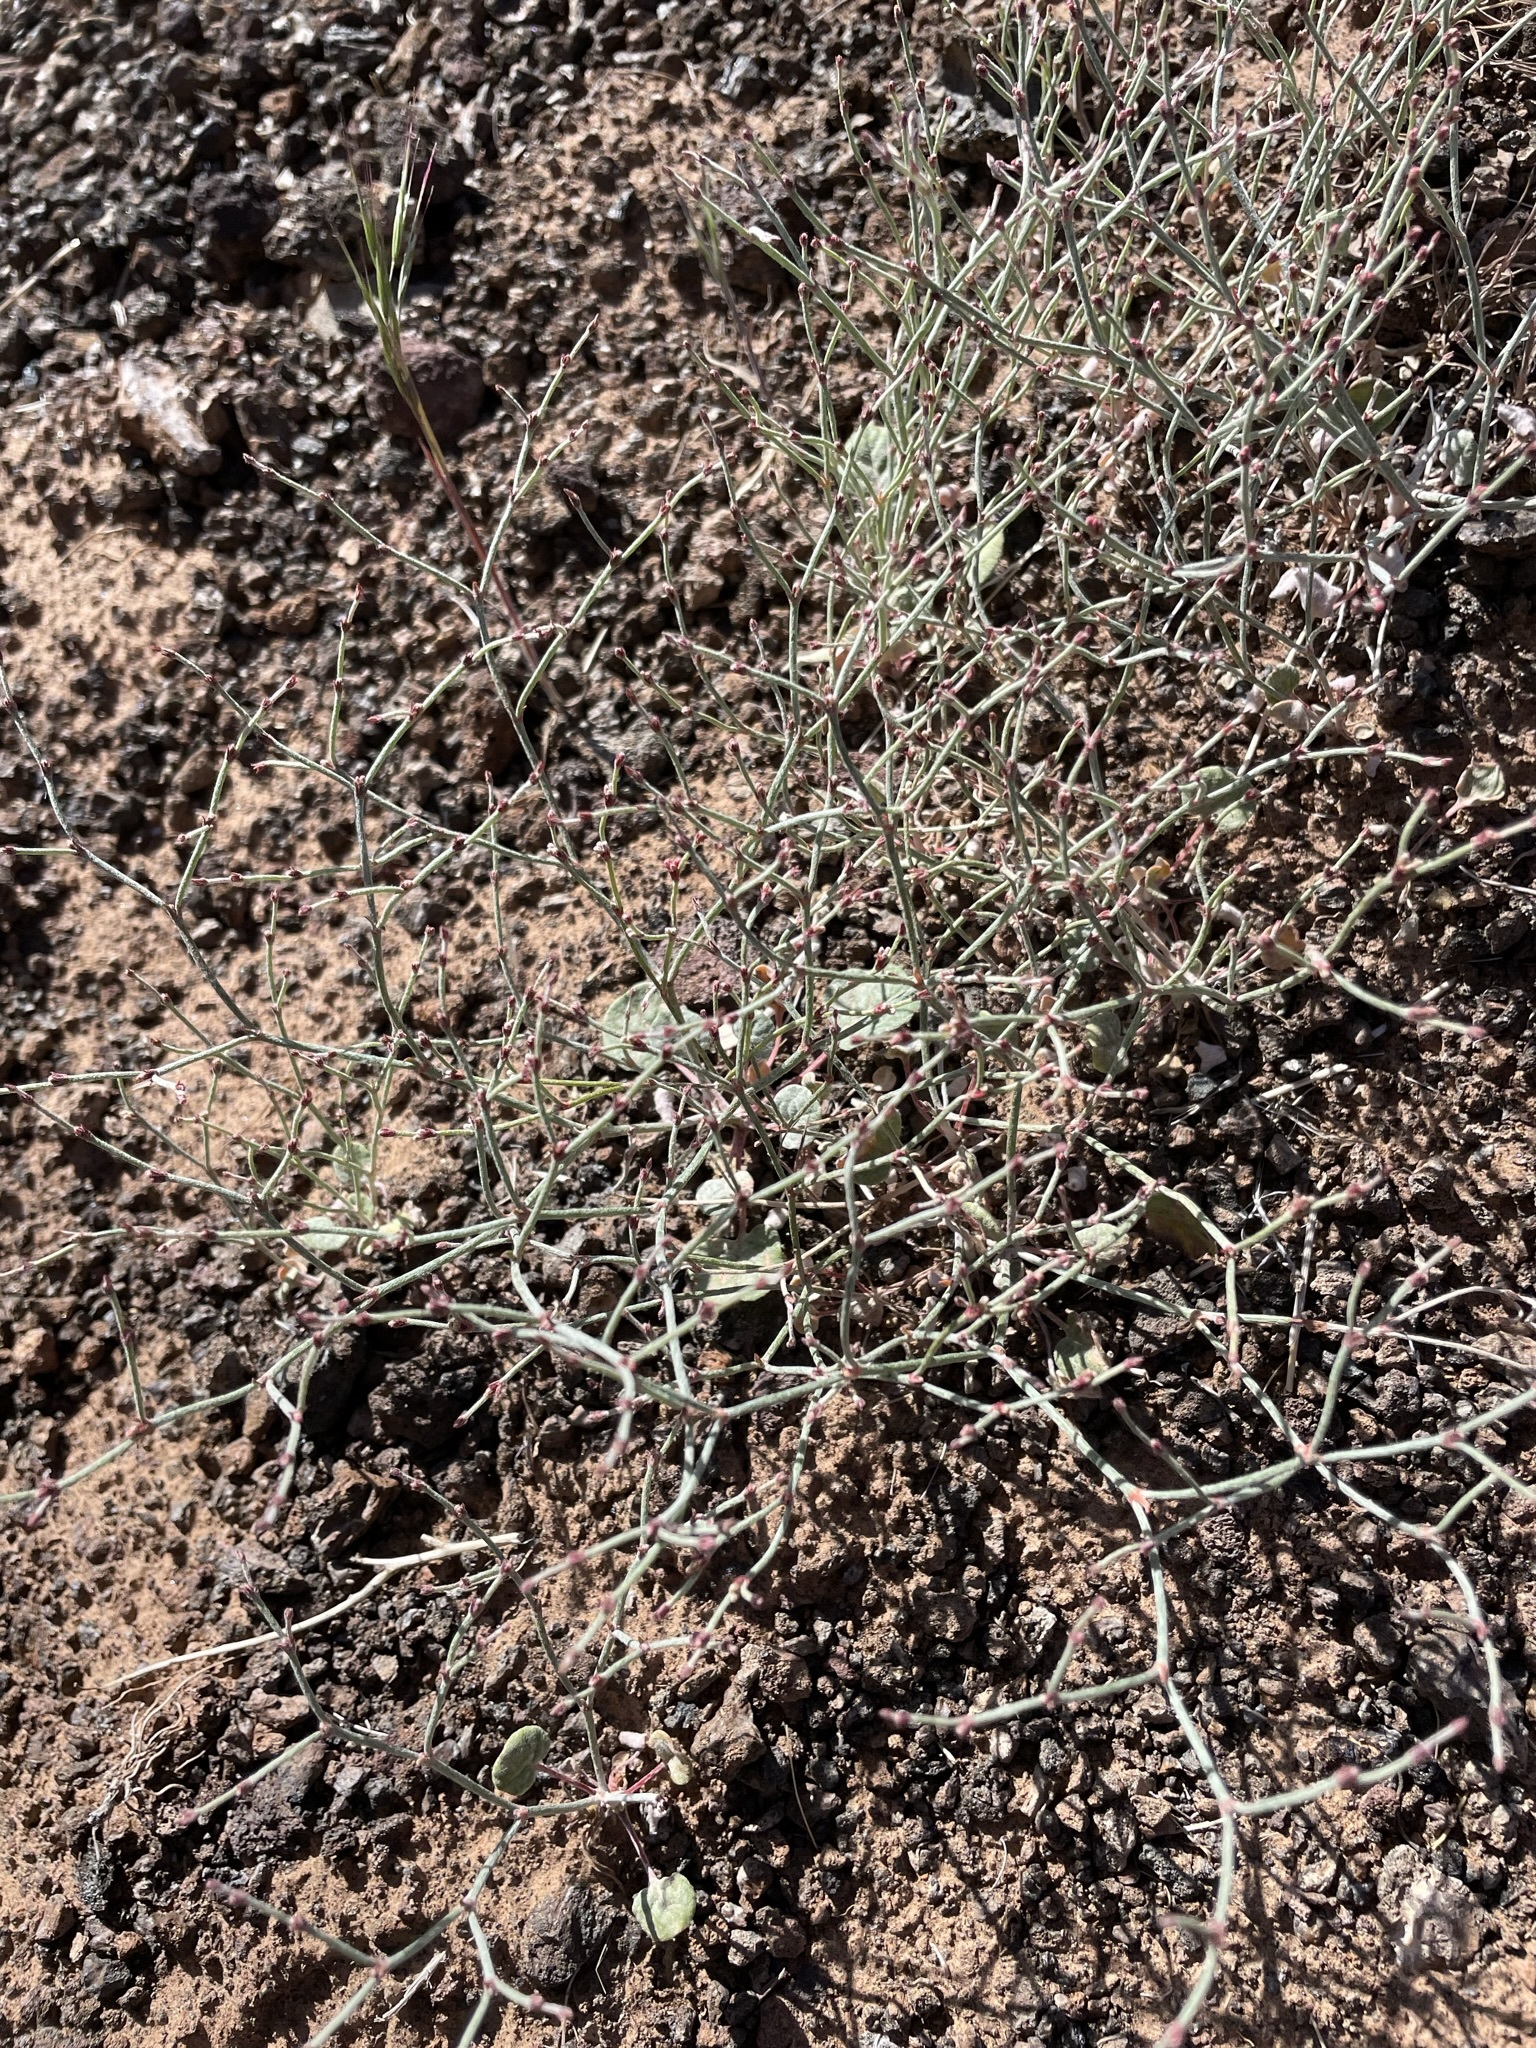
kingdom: Plantae
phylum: Tracheophyta
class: Magnoliopsida
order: Caryophyllales
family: Polygonaceae
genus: Eriogonum
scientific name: Eriogonum palmerianum
